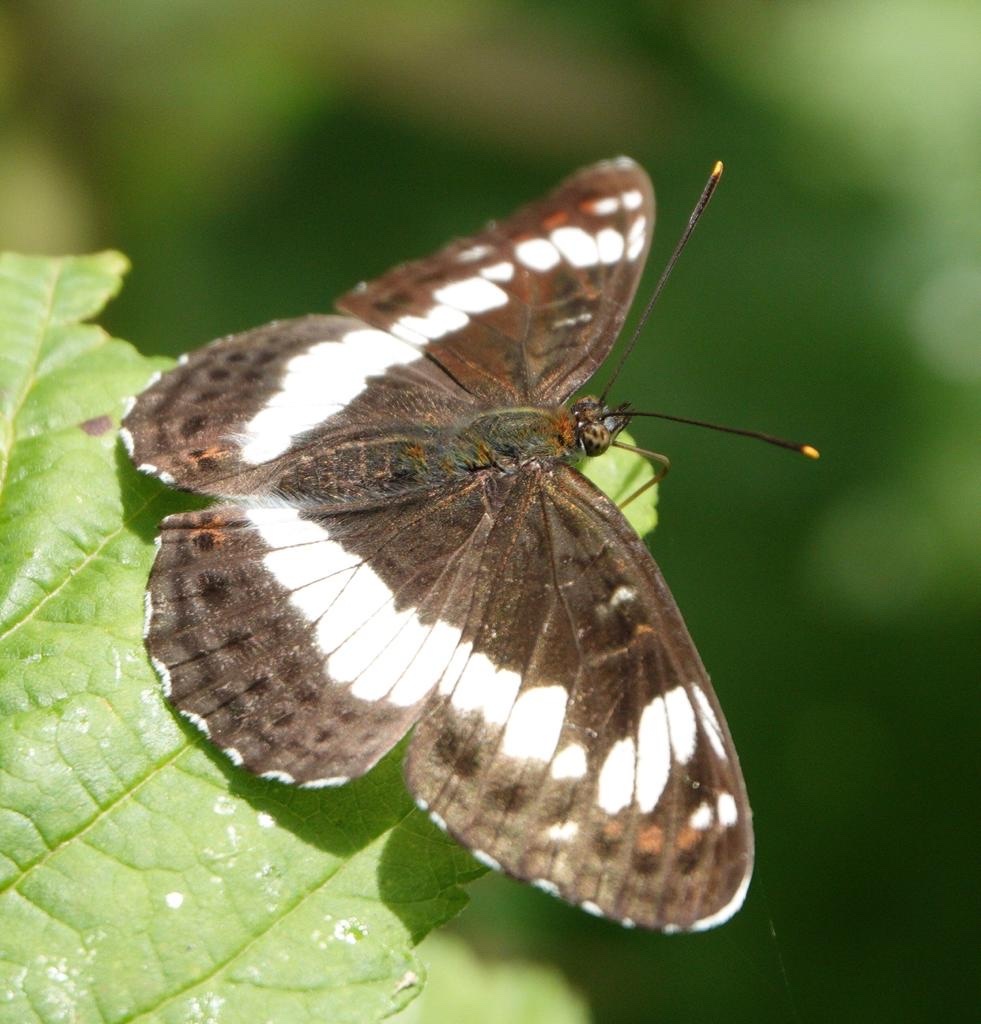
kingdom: Animalia
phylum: Arthropoda
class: Insecta
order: Lepidoptera
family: Nymphalidae
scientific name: Nymphalidae
